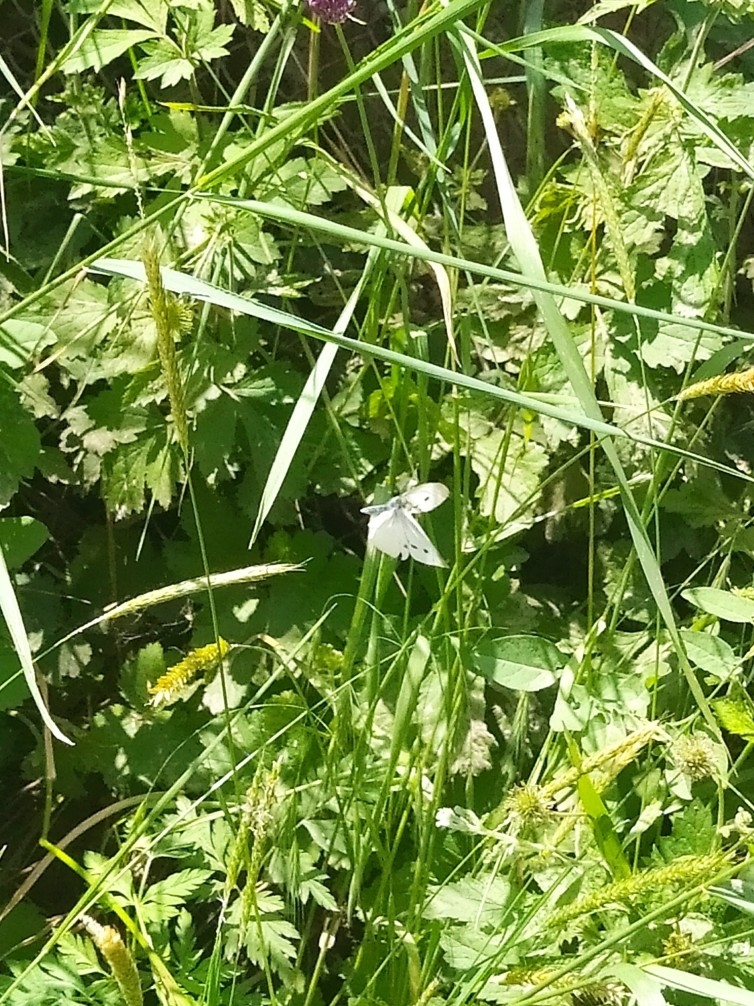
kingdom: Animalia
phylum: Arthropoda
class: Insecta
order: Lepidoptera
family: Pieridae
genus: Pieris
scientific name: Pieris rapae
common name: Small white
